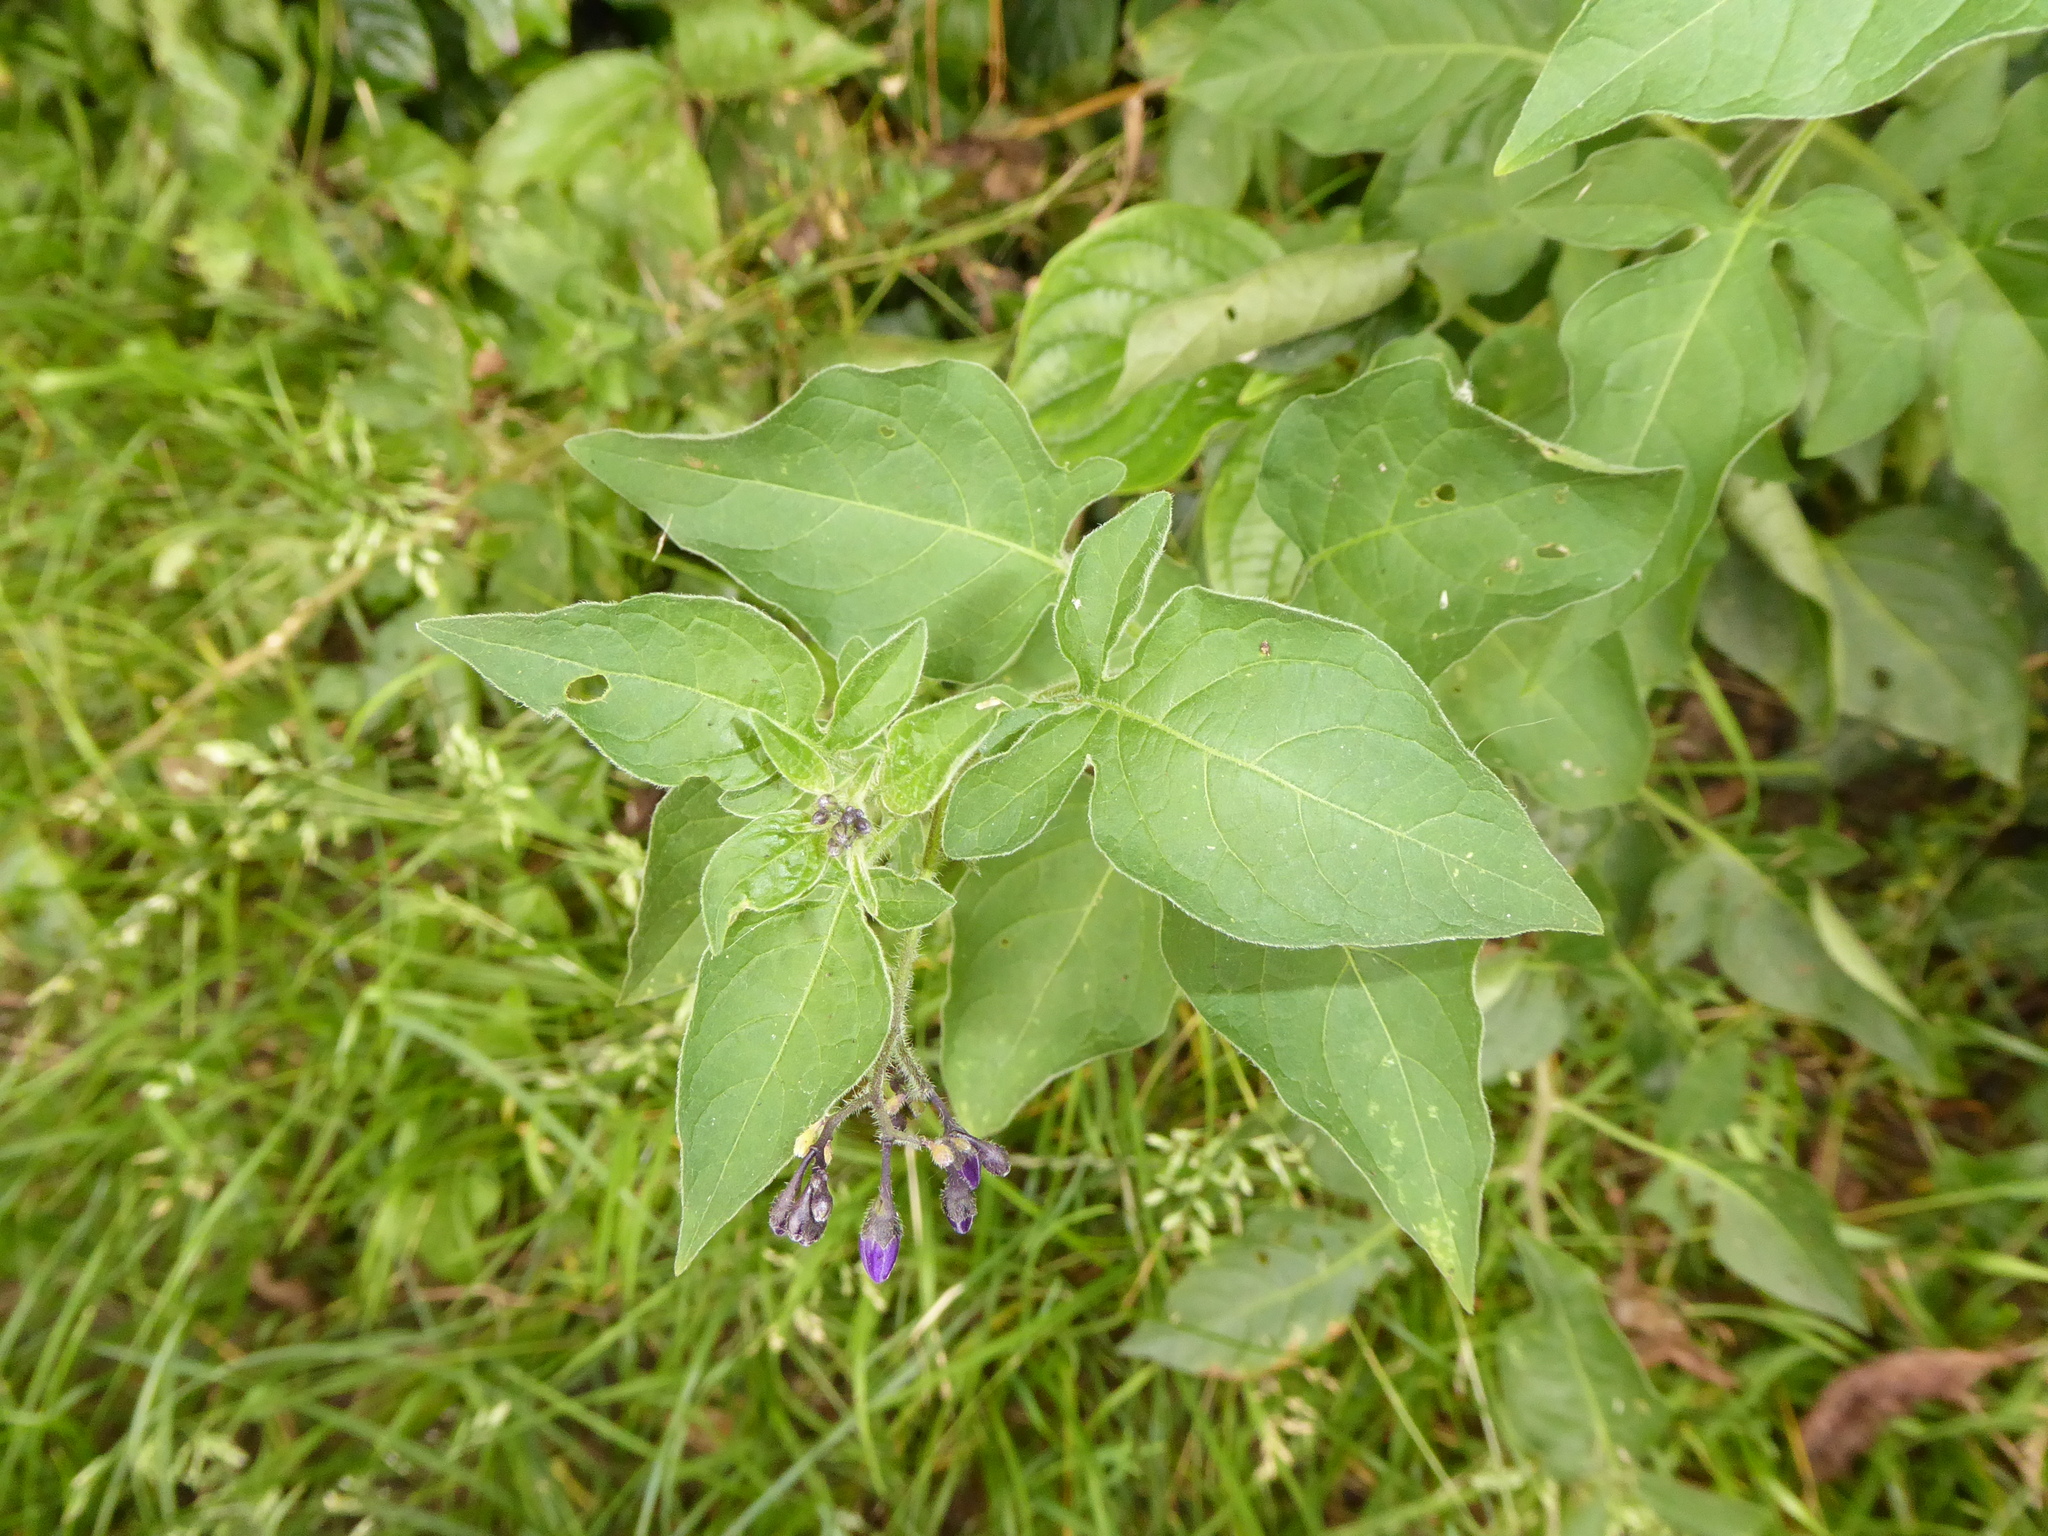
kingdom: Plantae
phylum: Tracheophyta
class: Magnoliopsida
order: Solanales
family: Solanaceae
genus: Solanum
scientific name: Solanum dulcamara
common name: Climbing nightshade
